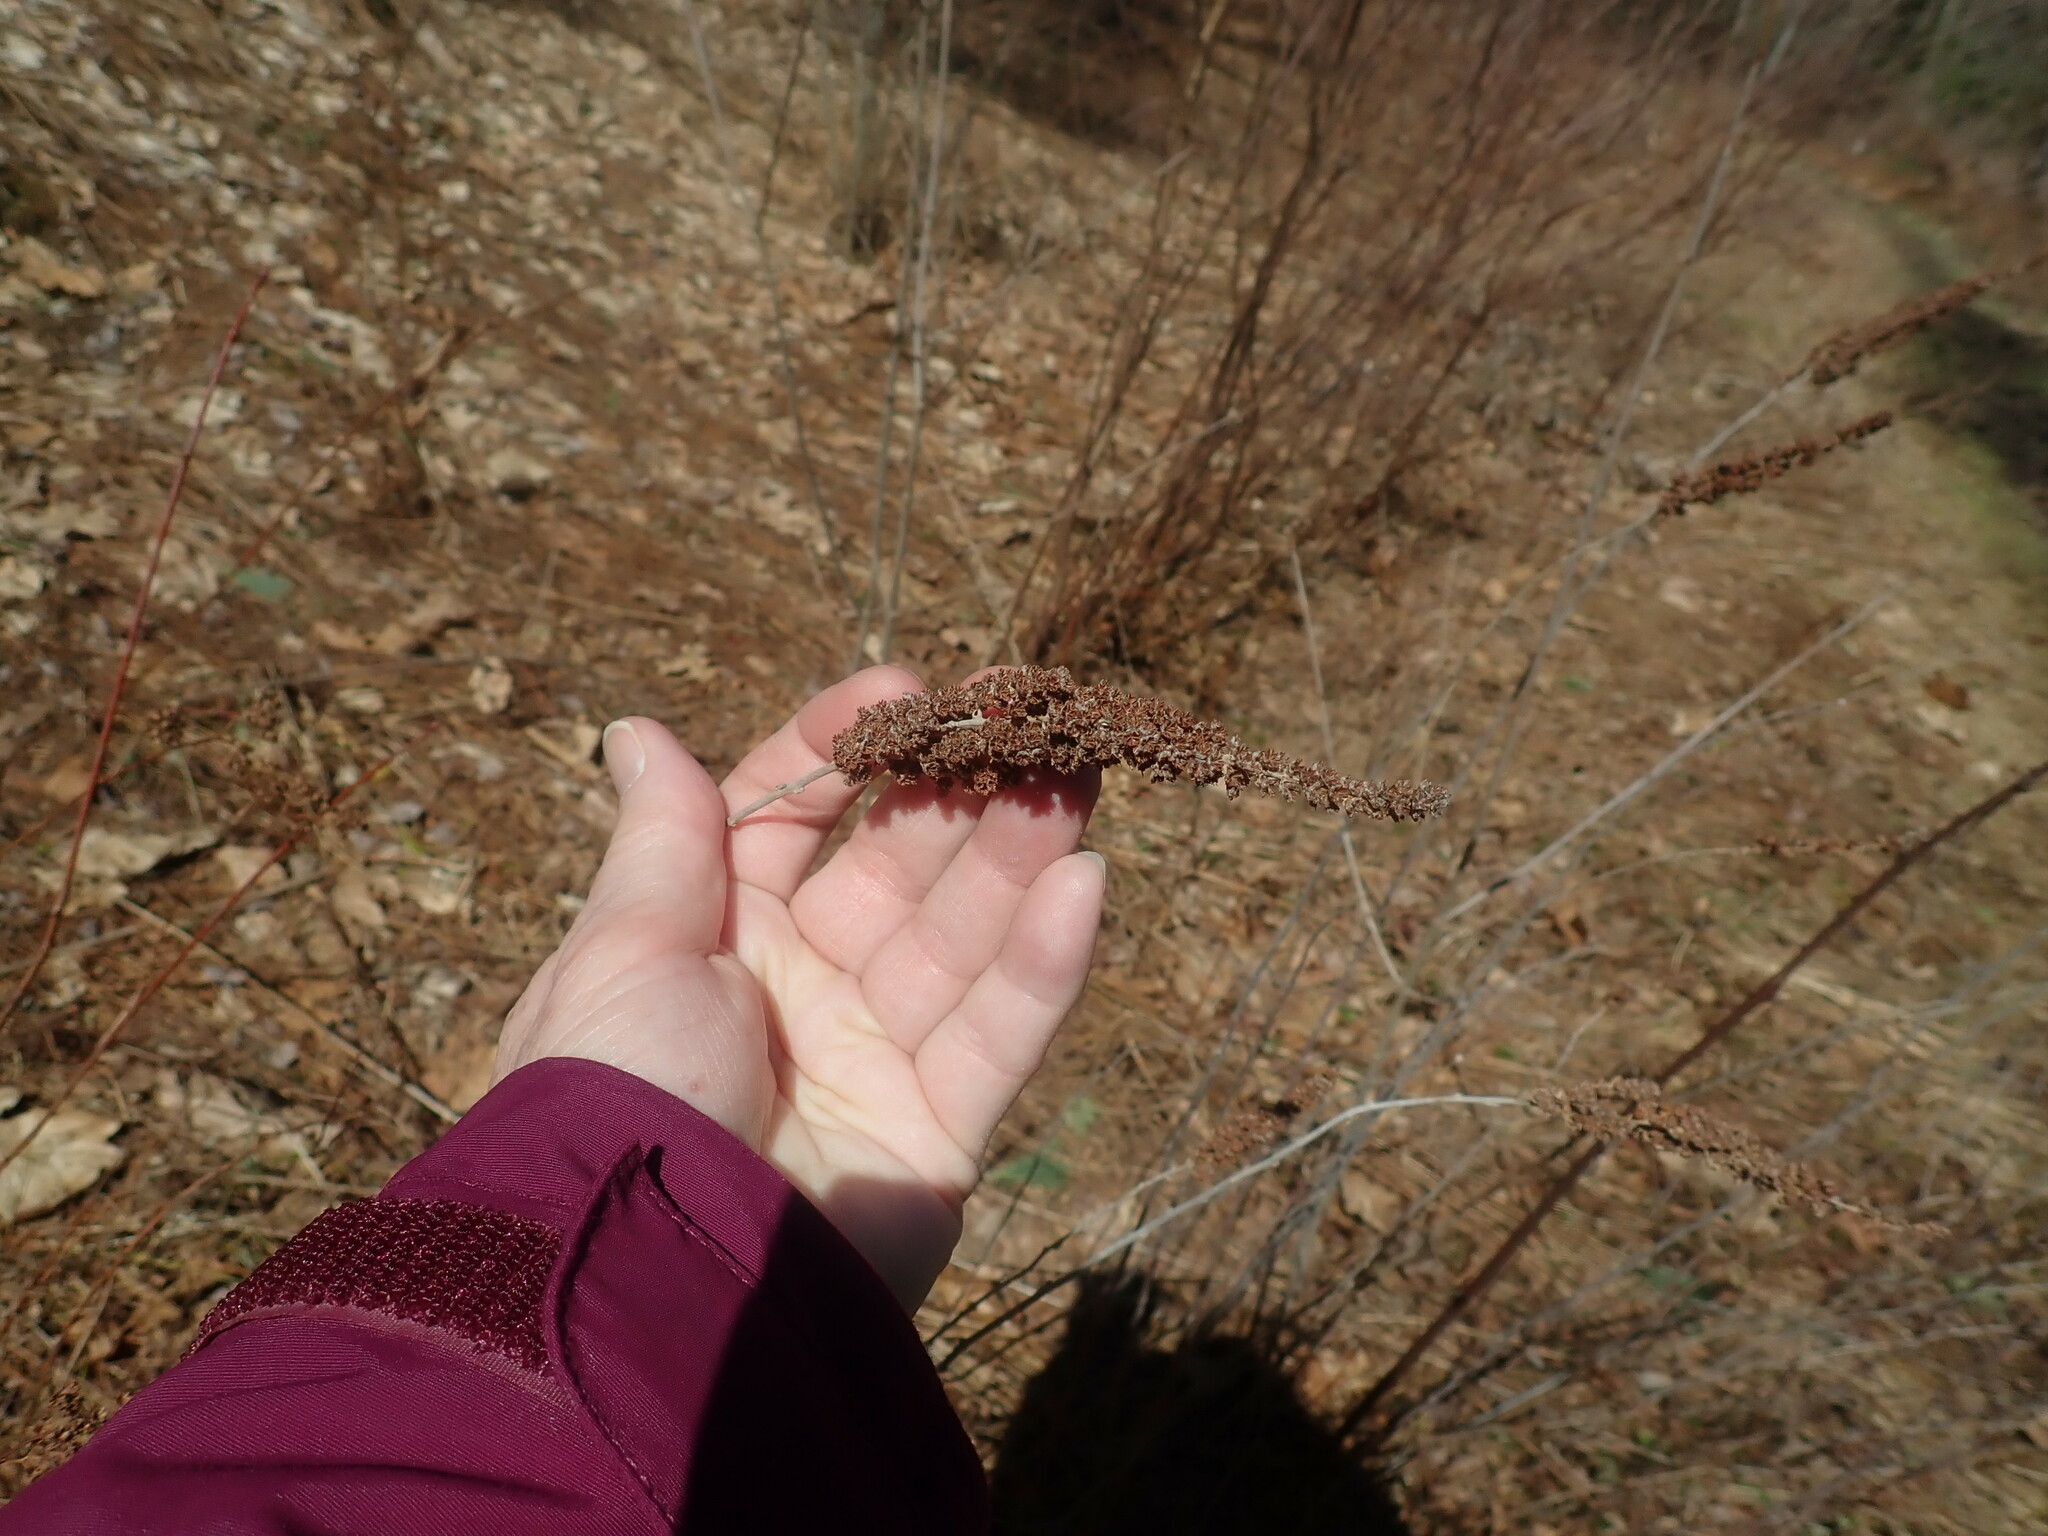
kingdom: Plantae
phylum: Tracheophyta
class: Magnoliopsida
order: Rosales
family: Rosaceae
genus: Spiraea
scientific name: Spiraea tomentosa
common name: Hardhack
